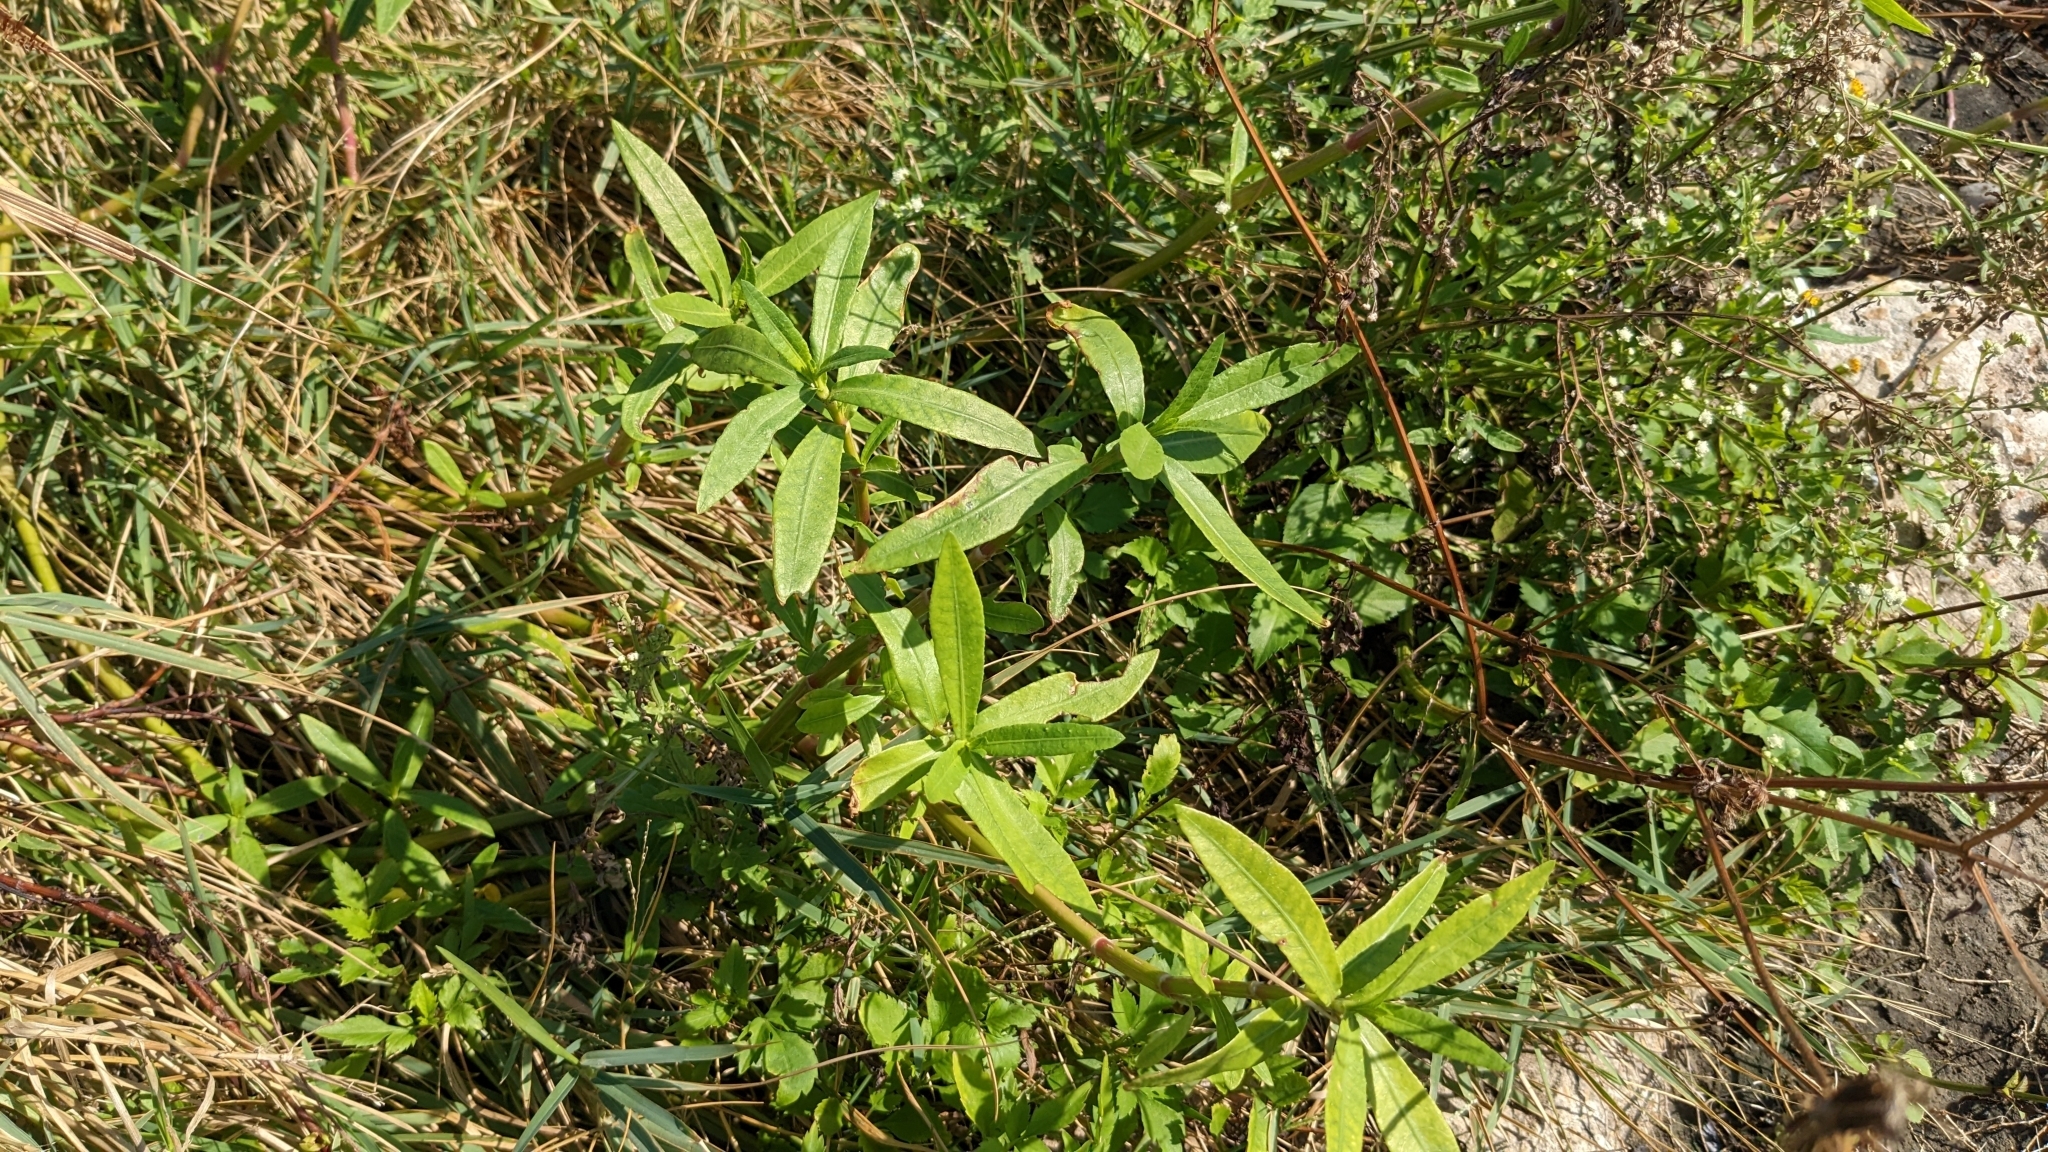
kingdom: Plantae
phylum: Tracheophyta
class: Magnoliopsida
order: Caryophyllales
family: Amaranthaceae
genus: Alternanthera
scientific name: Alternanthera philoxeroides
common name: Alligatorweed
